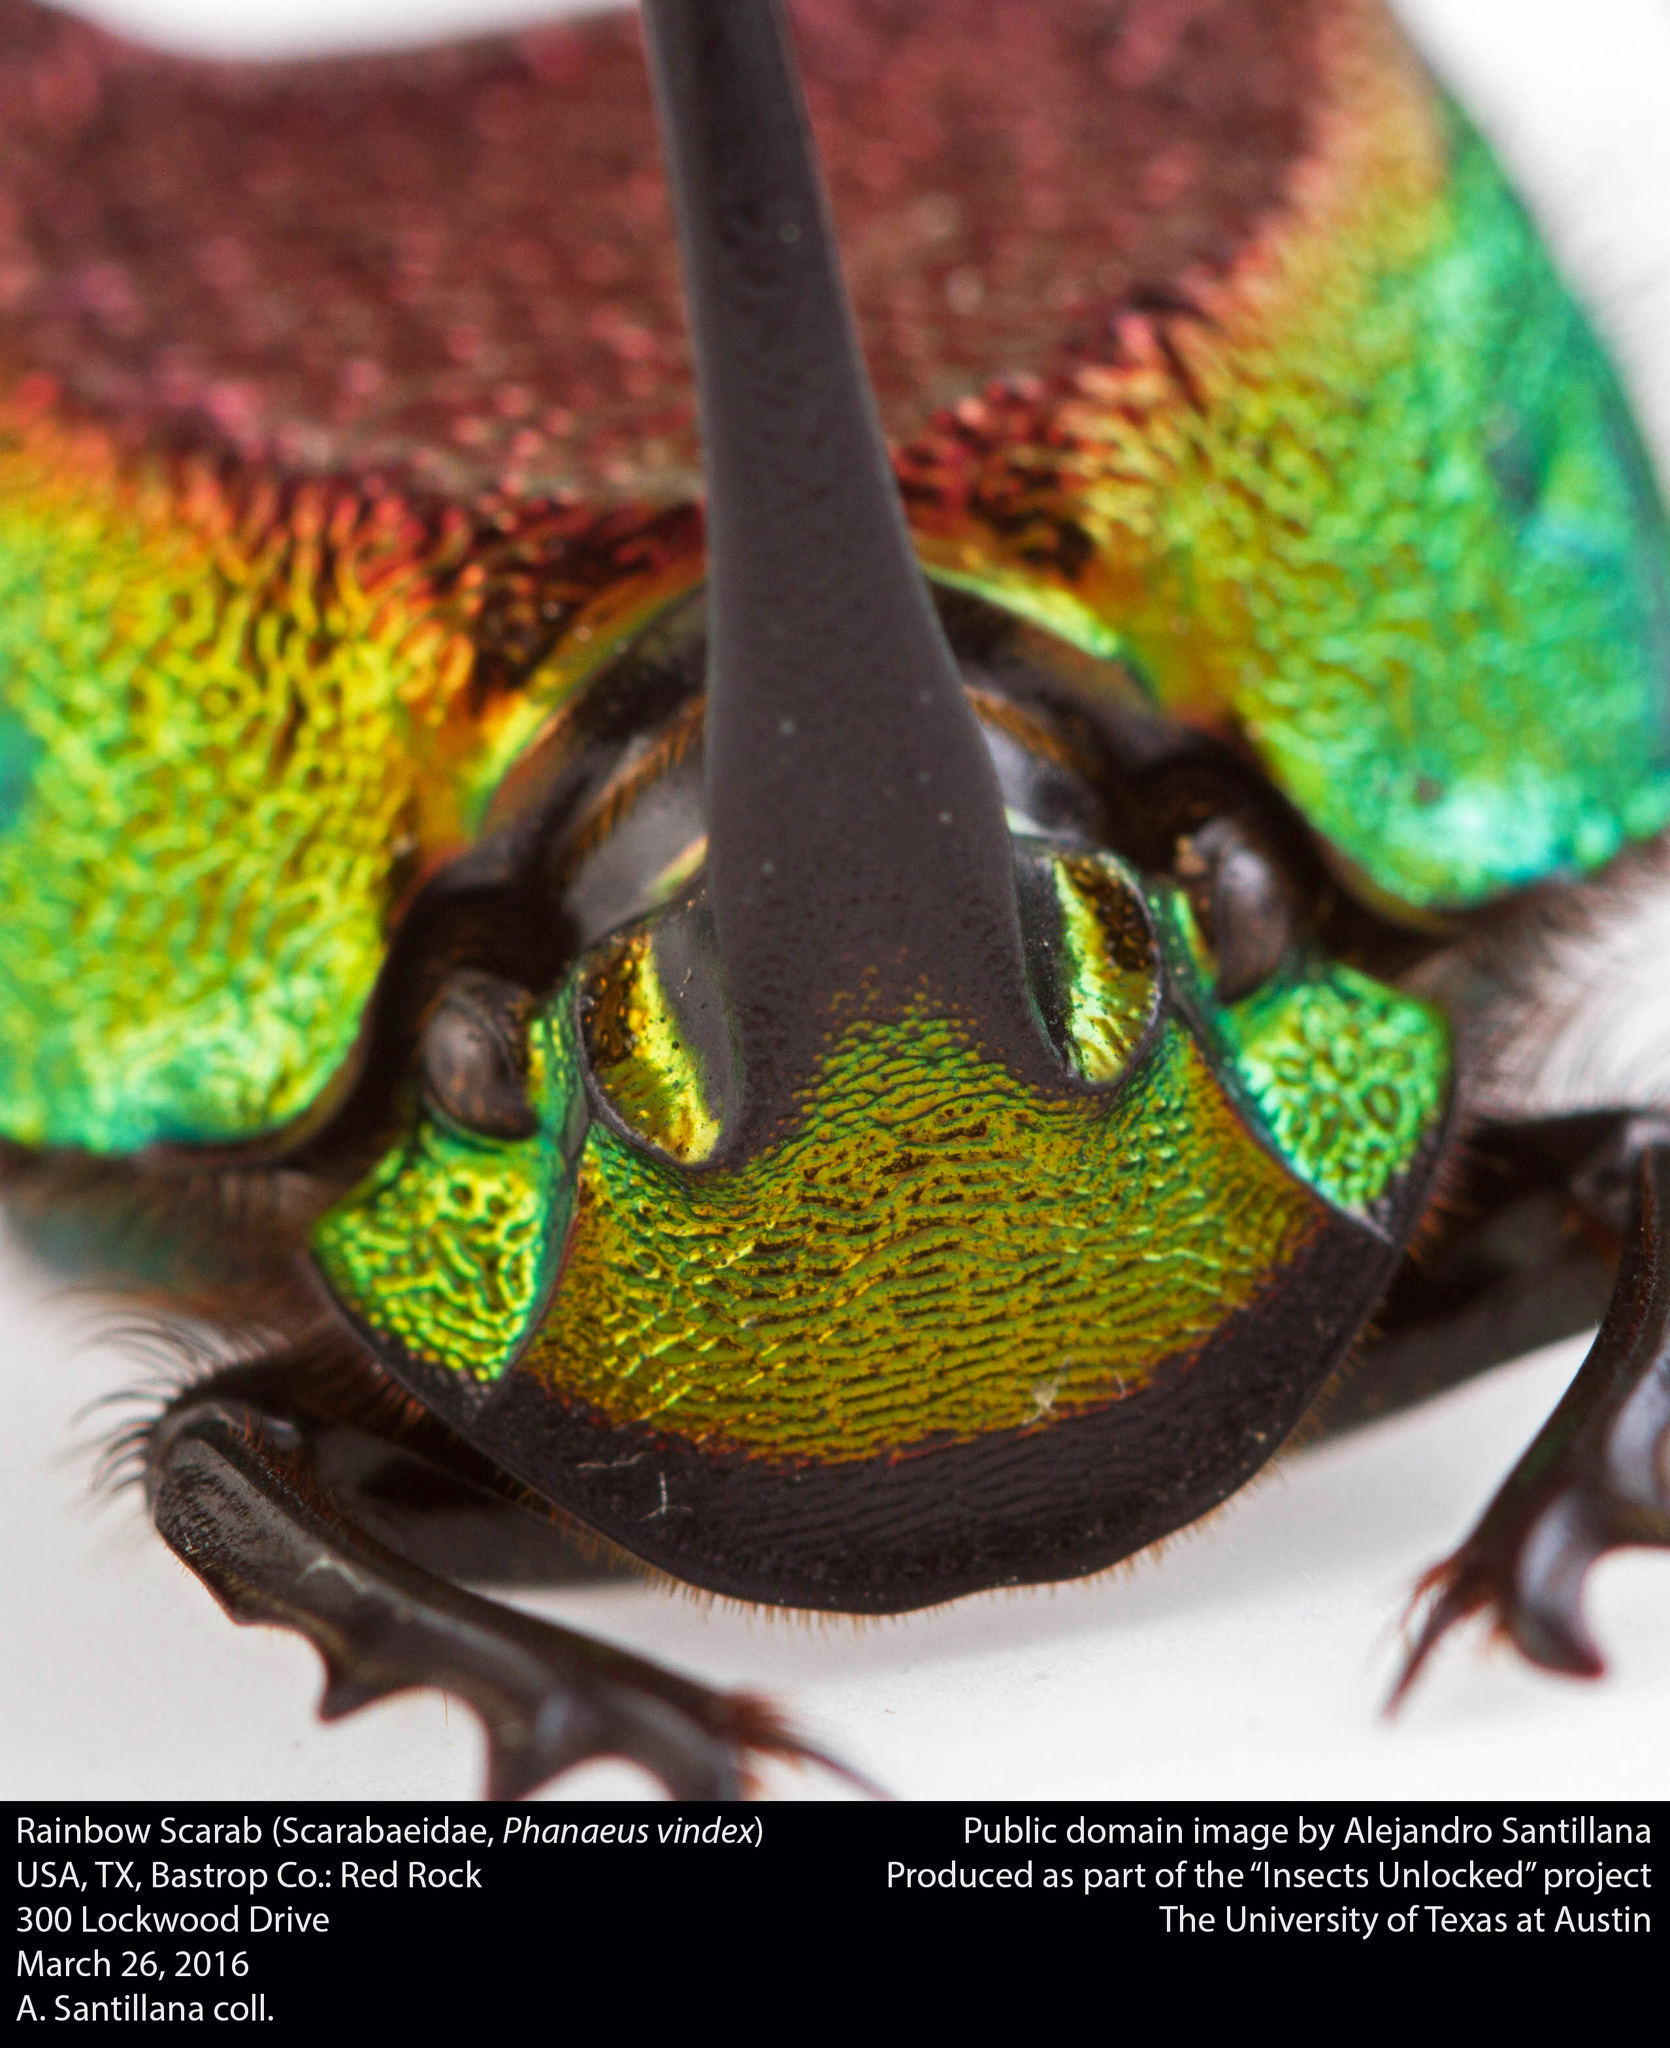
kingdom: Animalia
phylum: Arthropoda
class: Insecta
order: Coleoptera
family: Scarabaeidae
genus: Phanaeus
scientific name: Phanaeus difformis
